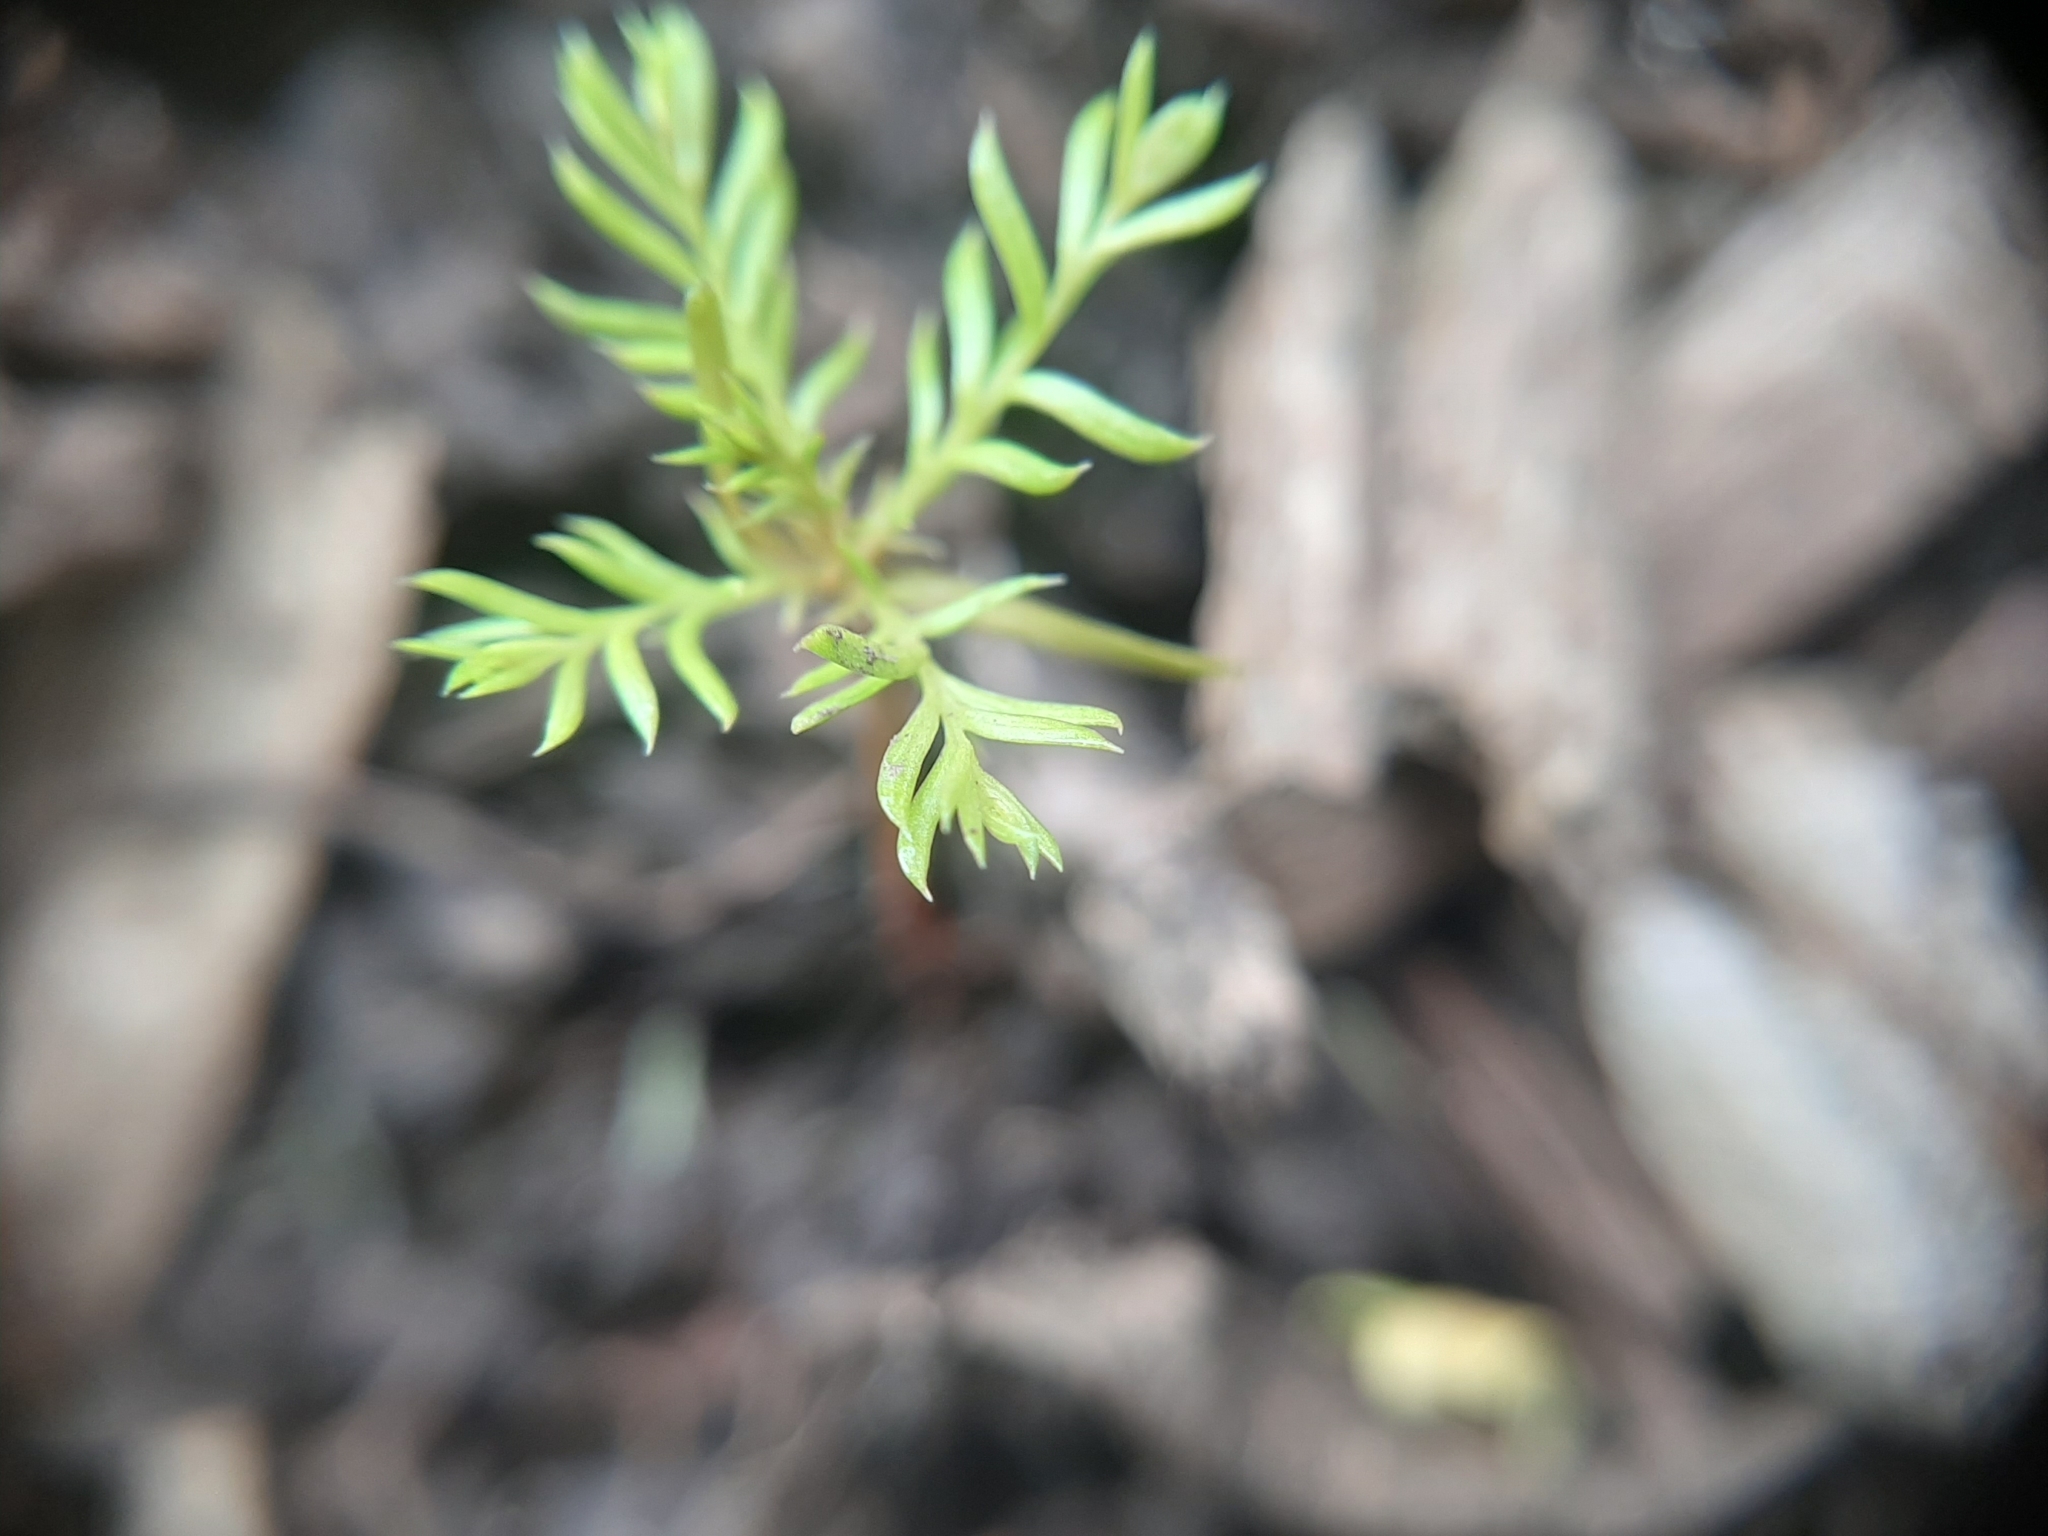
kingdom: Plantae
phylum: Tracheophyta
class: Pinopsida
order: Pinales
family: Podocarpaceae
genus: Dacrycarpus
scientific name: Dacrycarpus dacrydioides
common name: White pine
